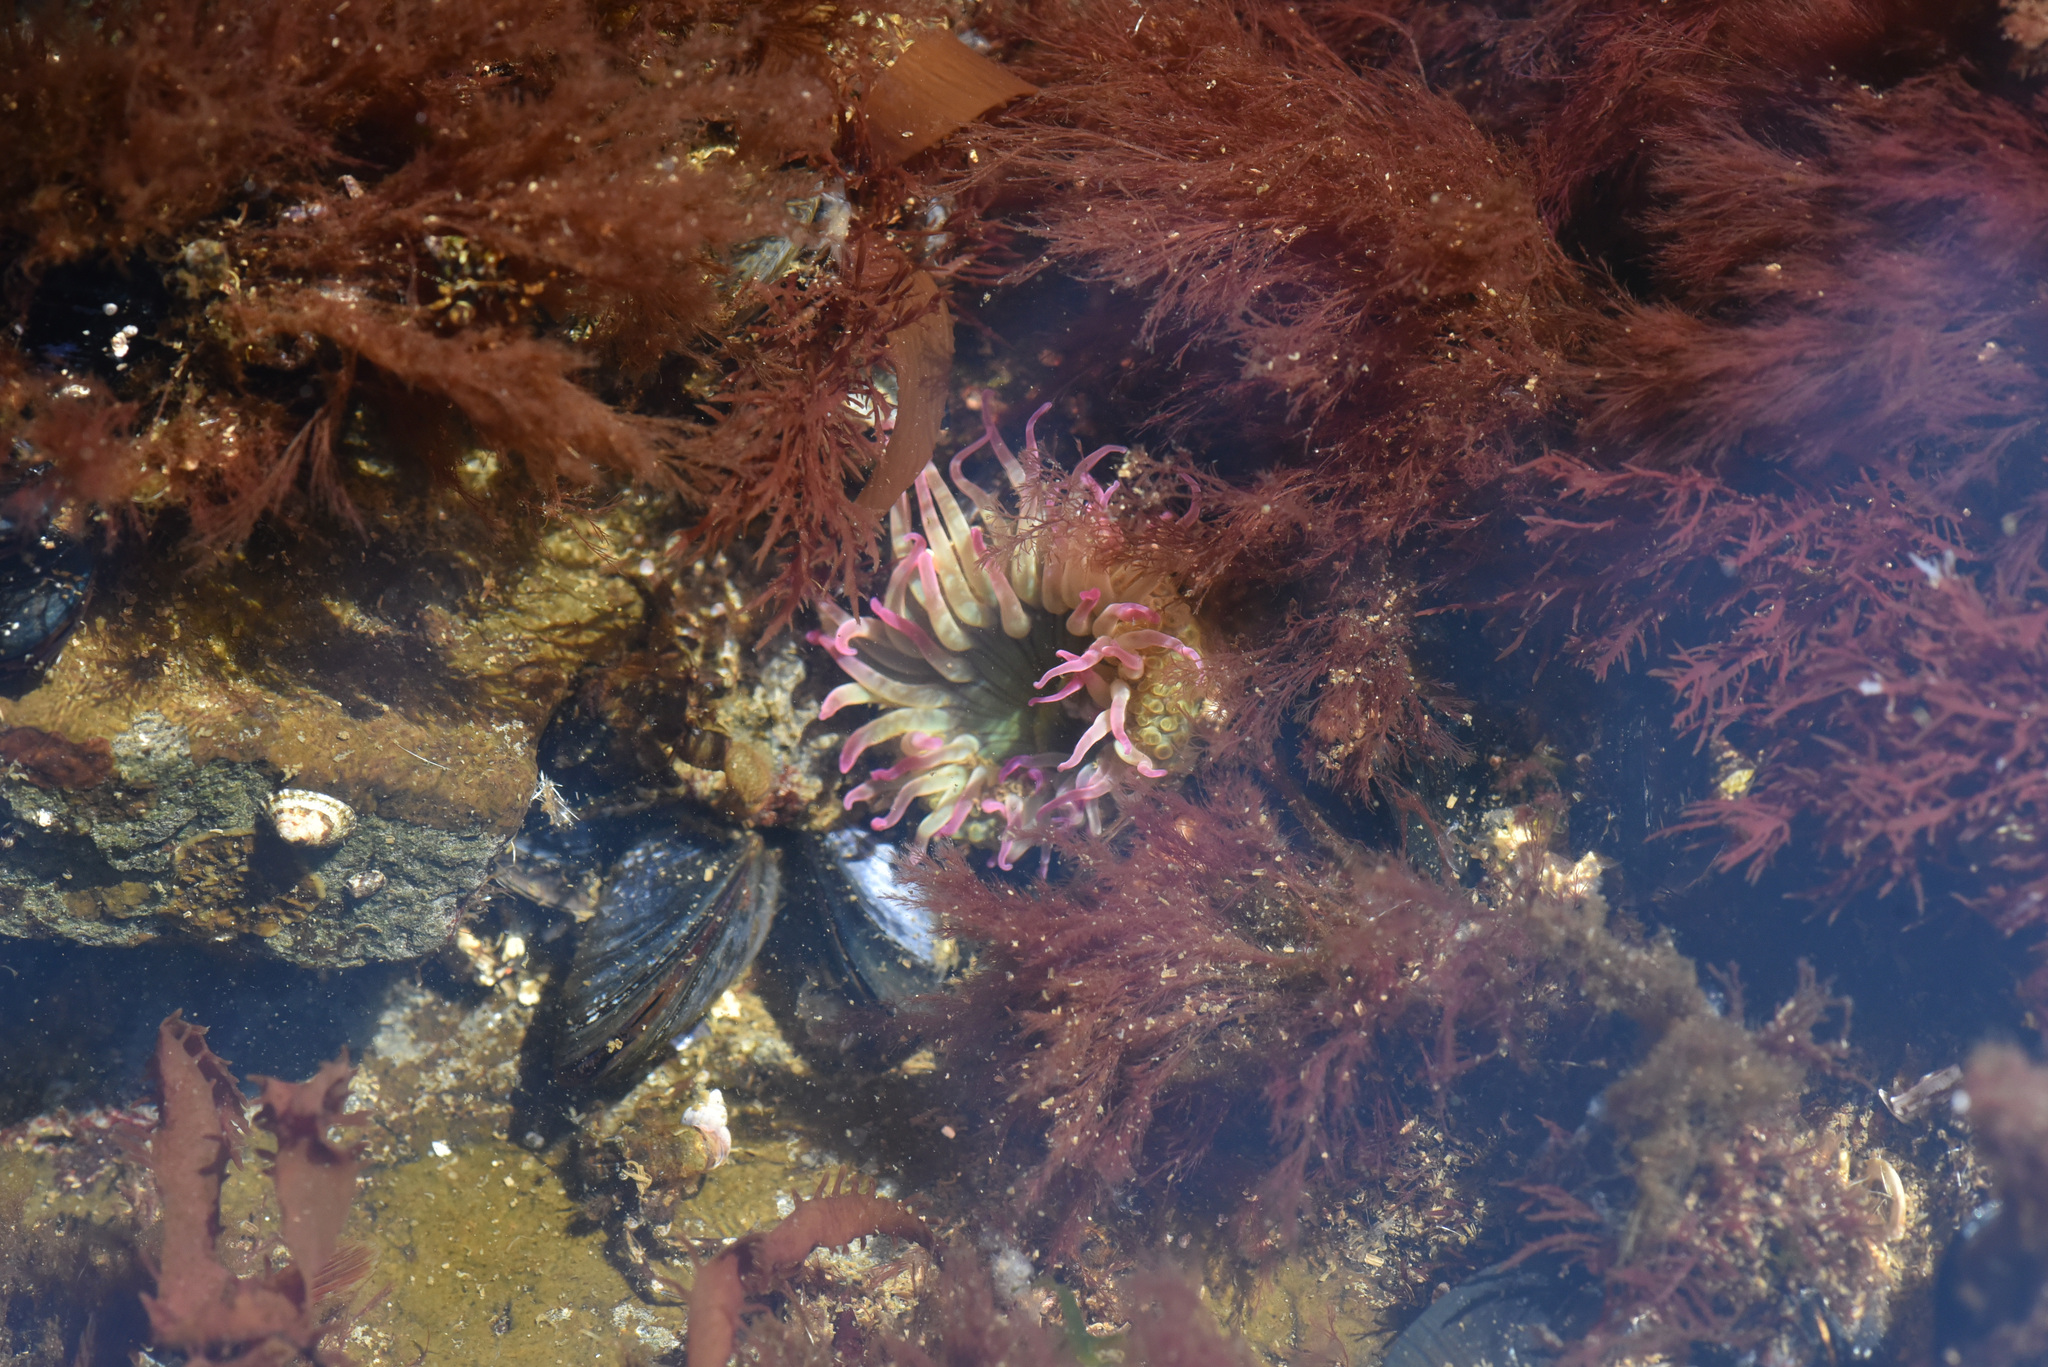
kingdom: Animalia
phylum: Cnidaria
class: Anthozoa
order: Actiniaria
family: Actiniidae
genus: Anthopleura
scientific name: Anthopleura elegantissima
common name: Clonal anemone
